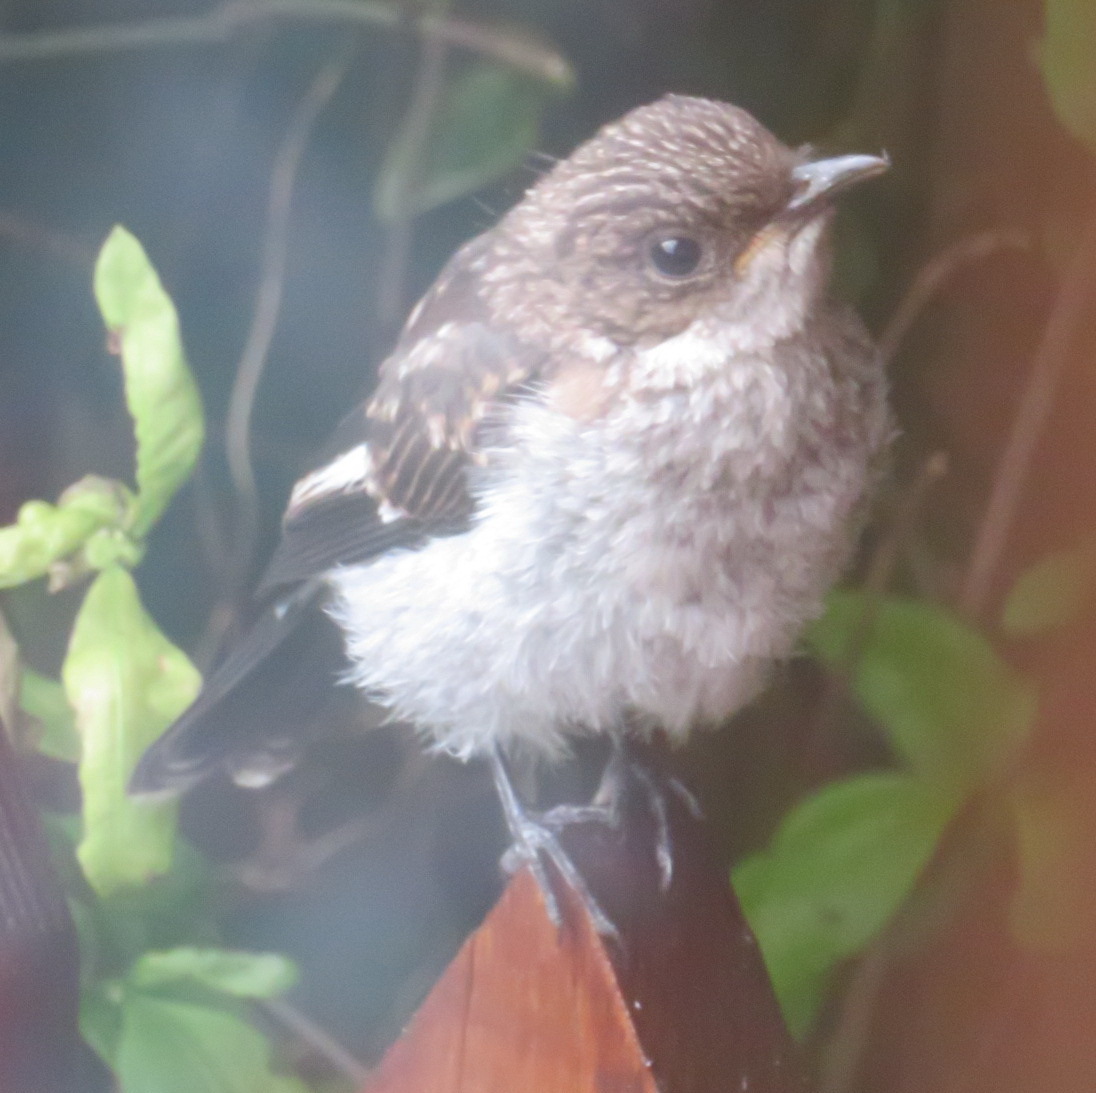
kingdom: Animalia
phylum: Chordata
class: Aves
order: Passeriformes
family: Muscicapidae
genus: Sigelus
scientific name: Sigelus silens
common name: Fiscal flycatcher
